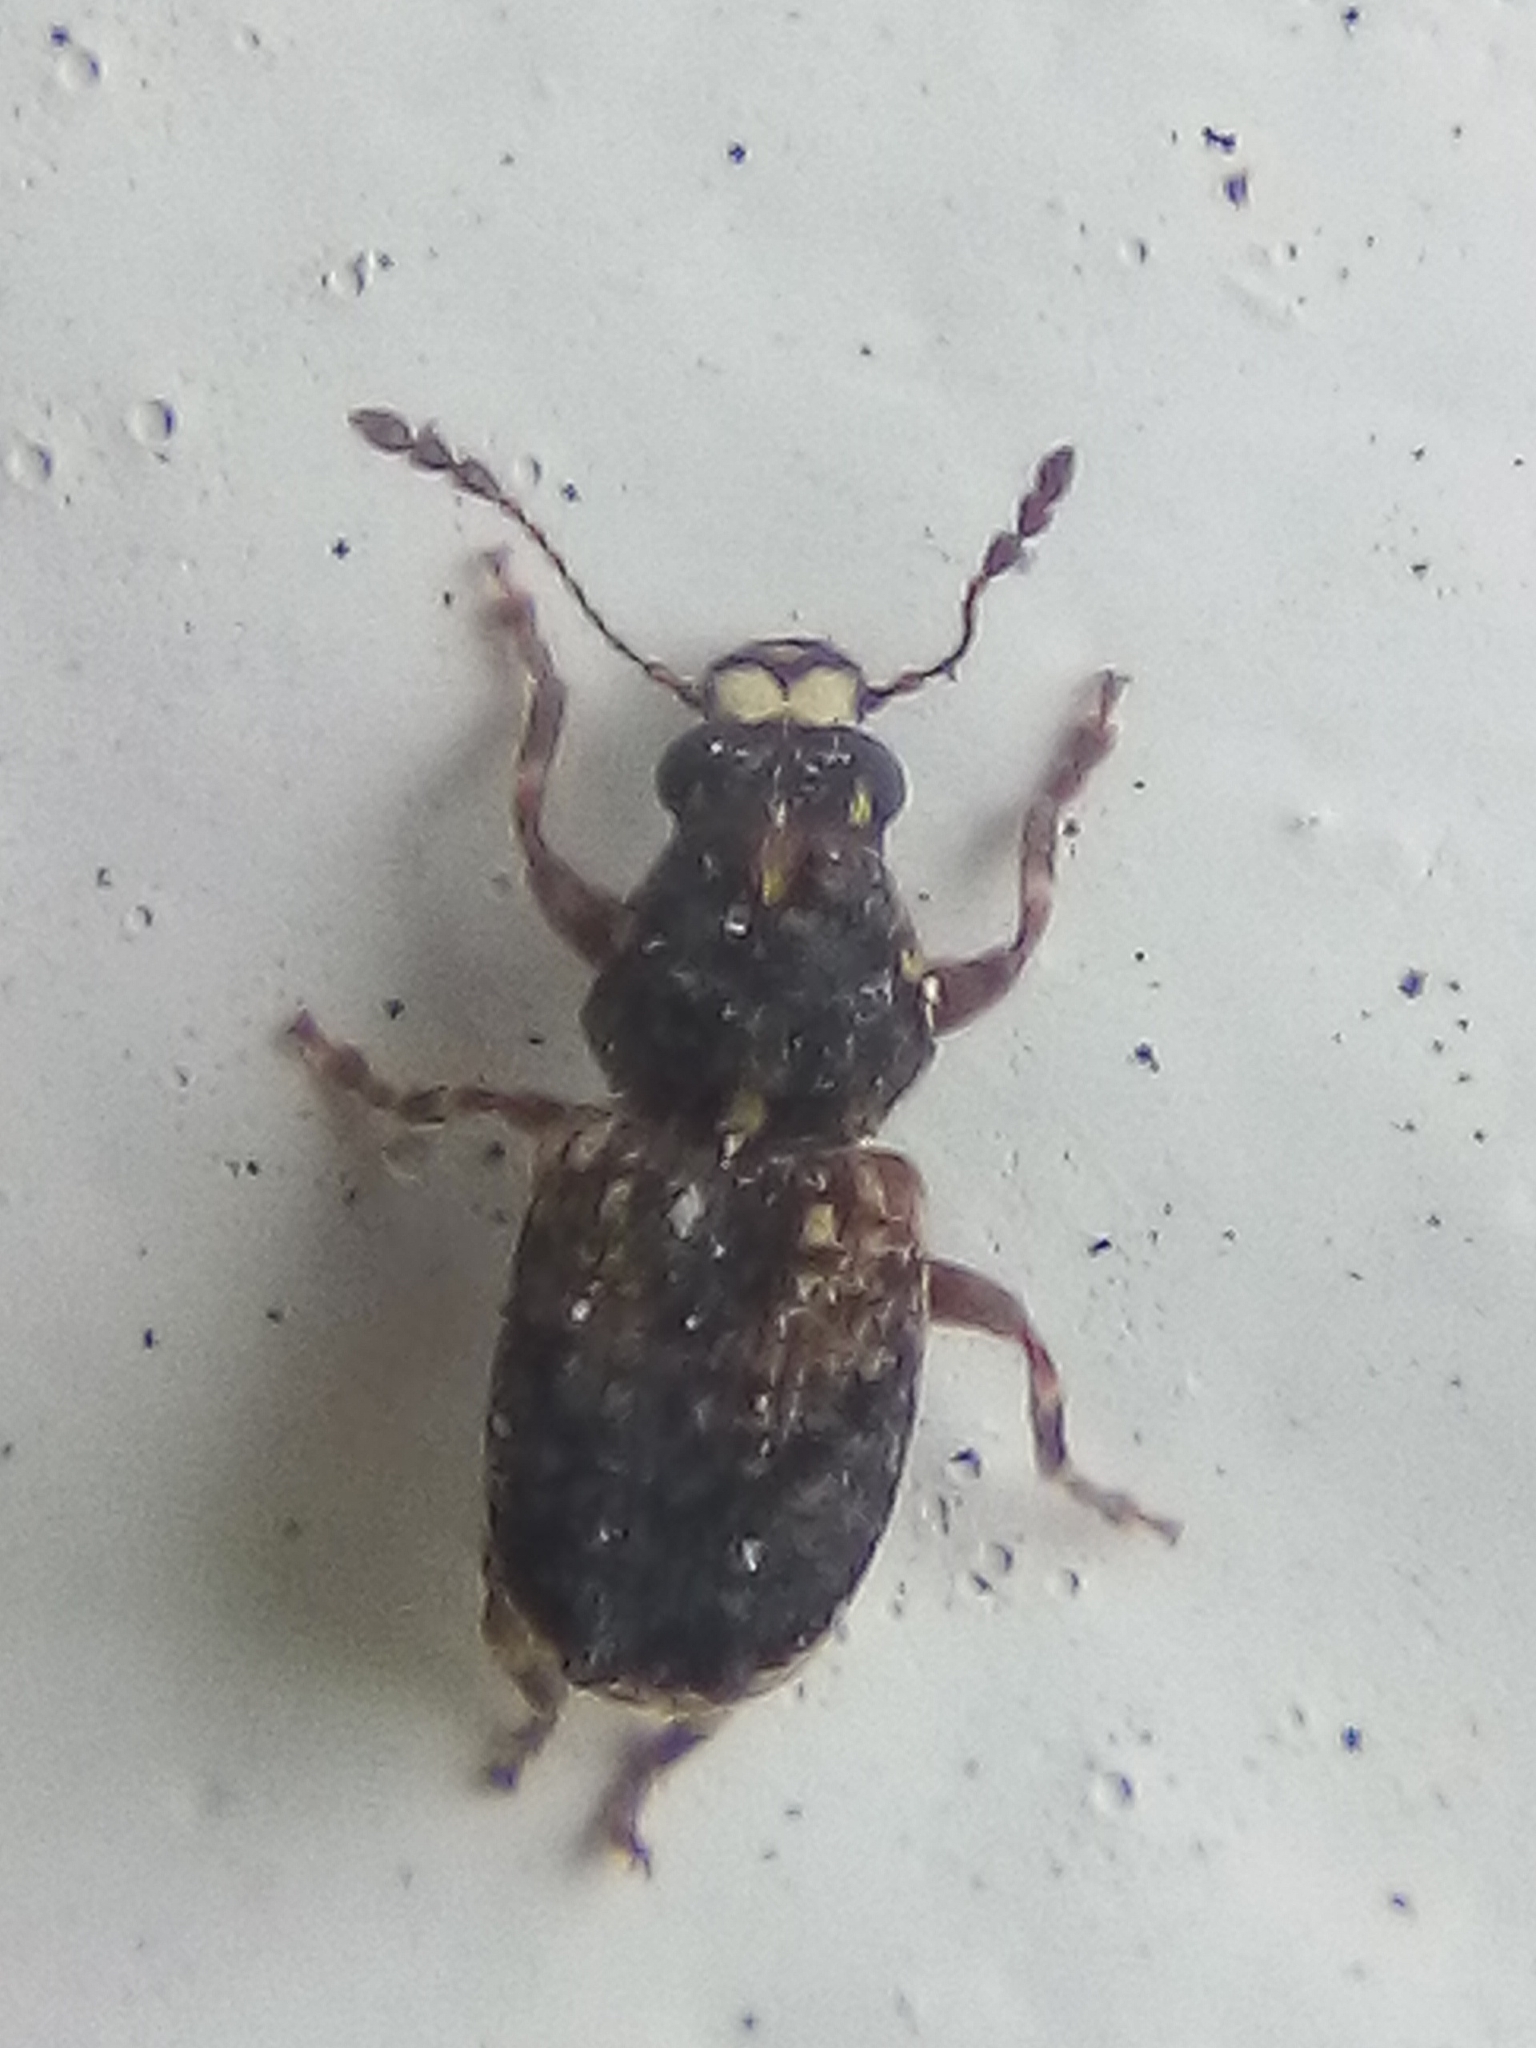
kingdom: Animalia
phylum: Arthropoda
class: Insecta
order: Coleoptera
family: Anthribidae
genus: Pleosporius
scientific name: Pleosporius bullatus
